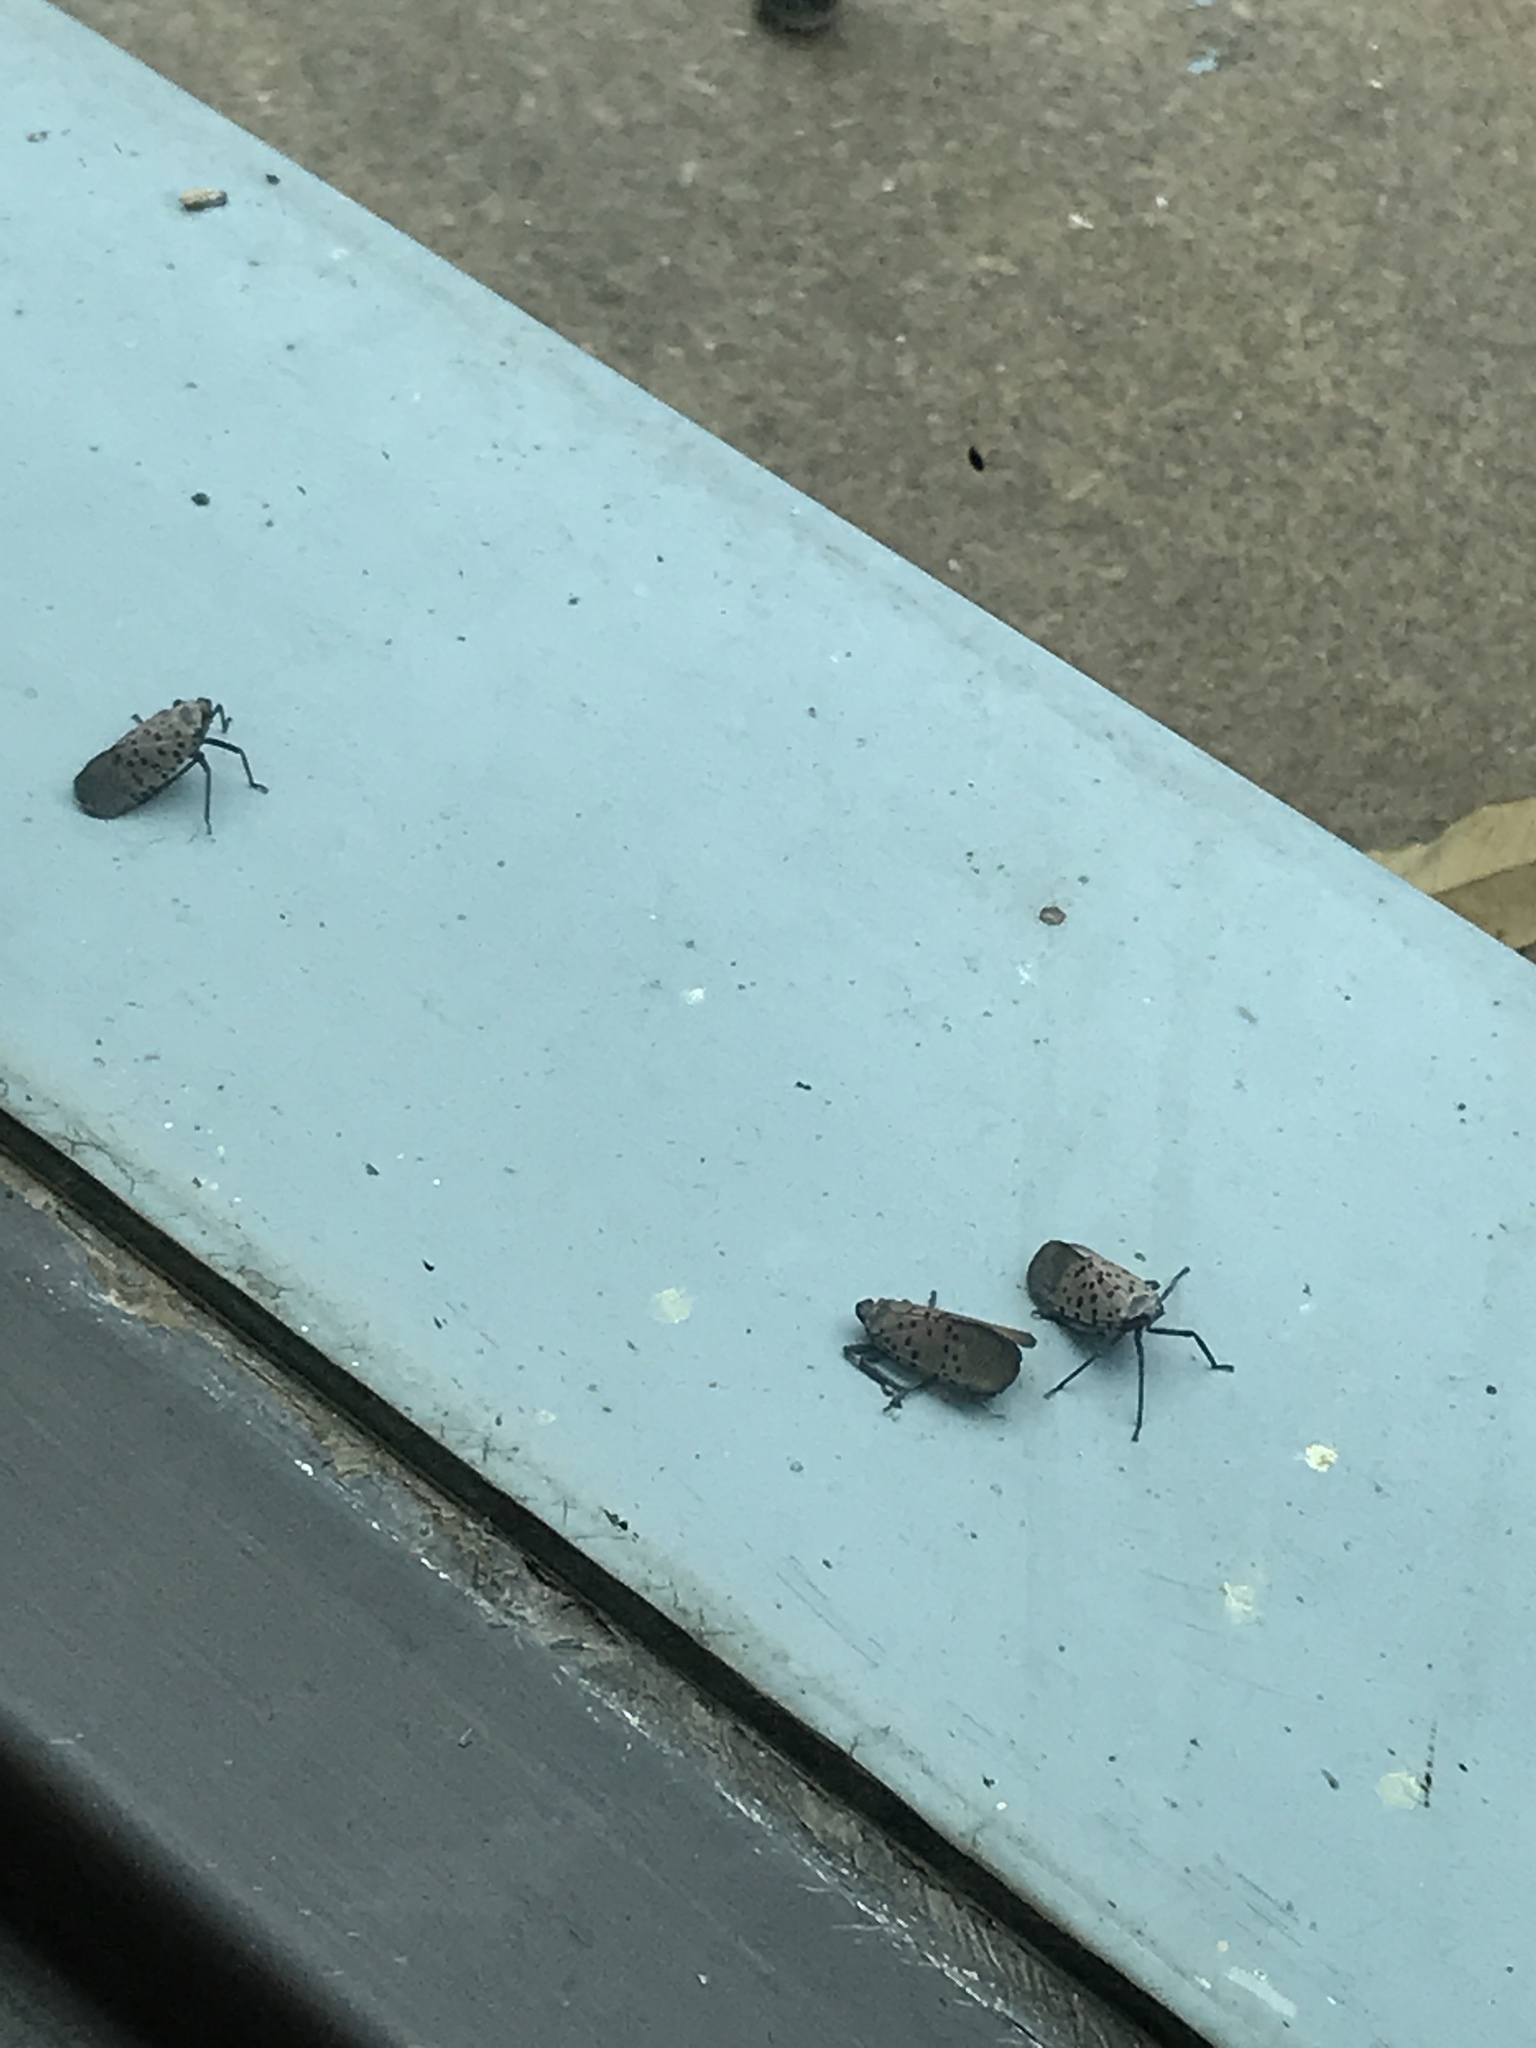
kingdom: Animalia
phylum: Arthropoda
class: Insecta
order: Hemiptera
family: Fulgoridae
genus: Lycorma
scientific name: Lycorma delicatula
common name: Spotted lanternfly
